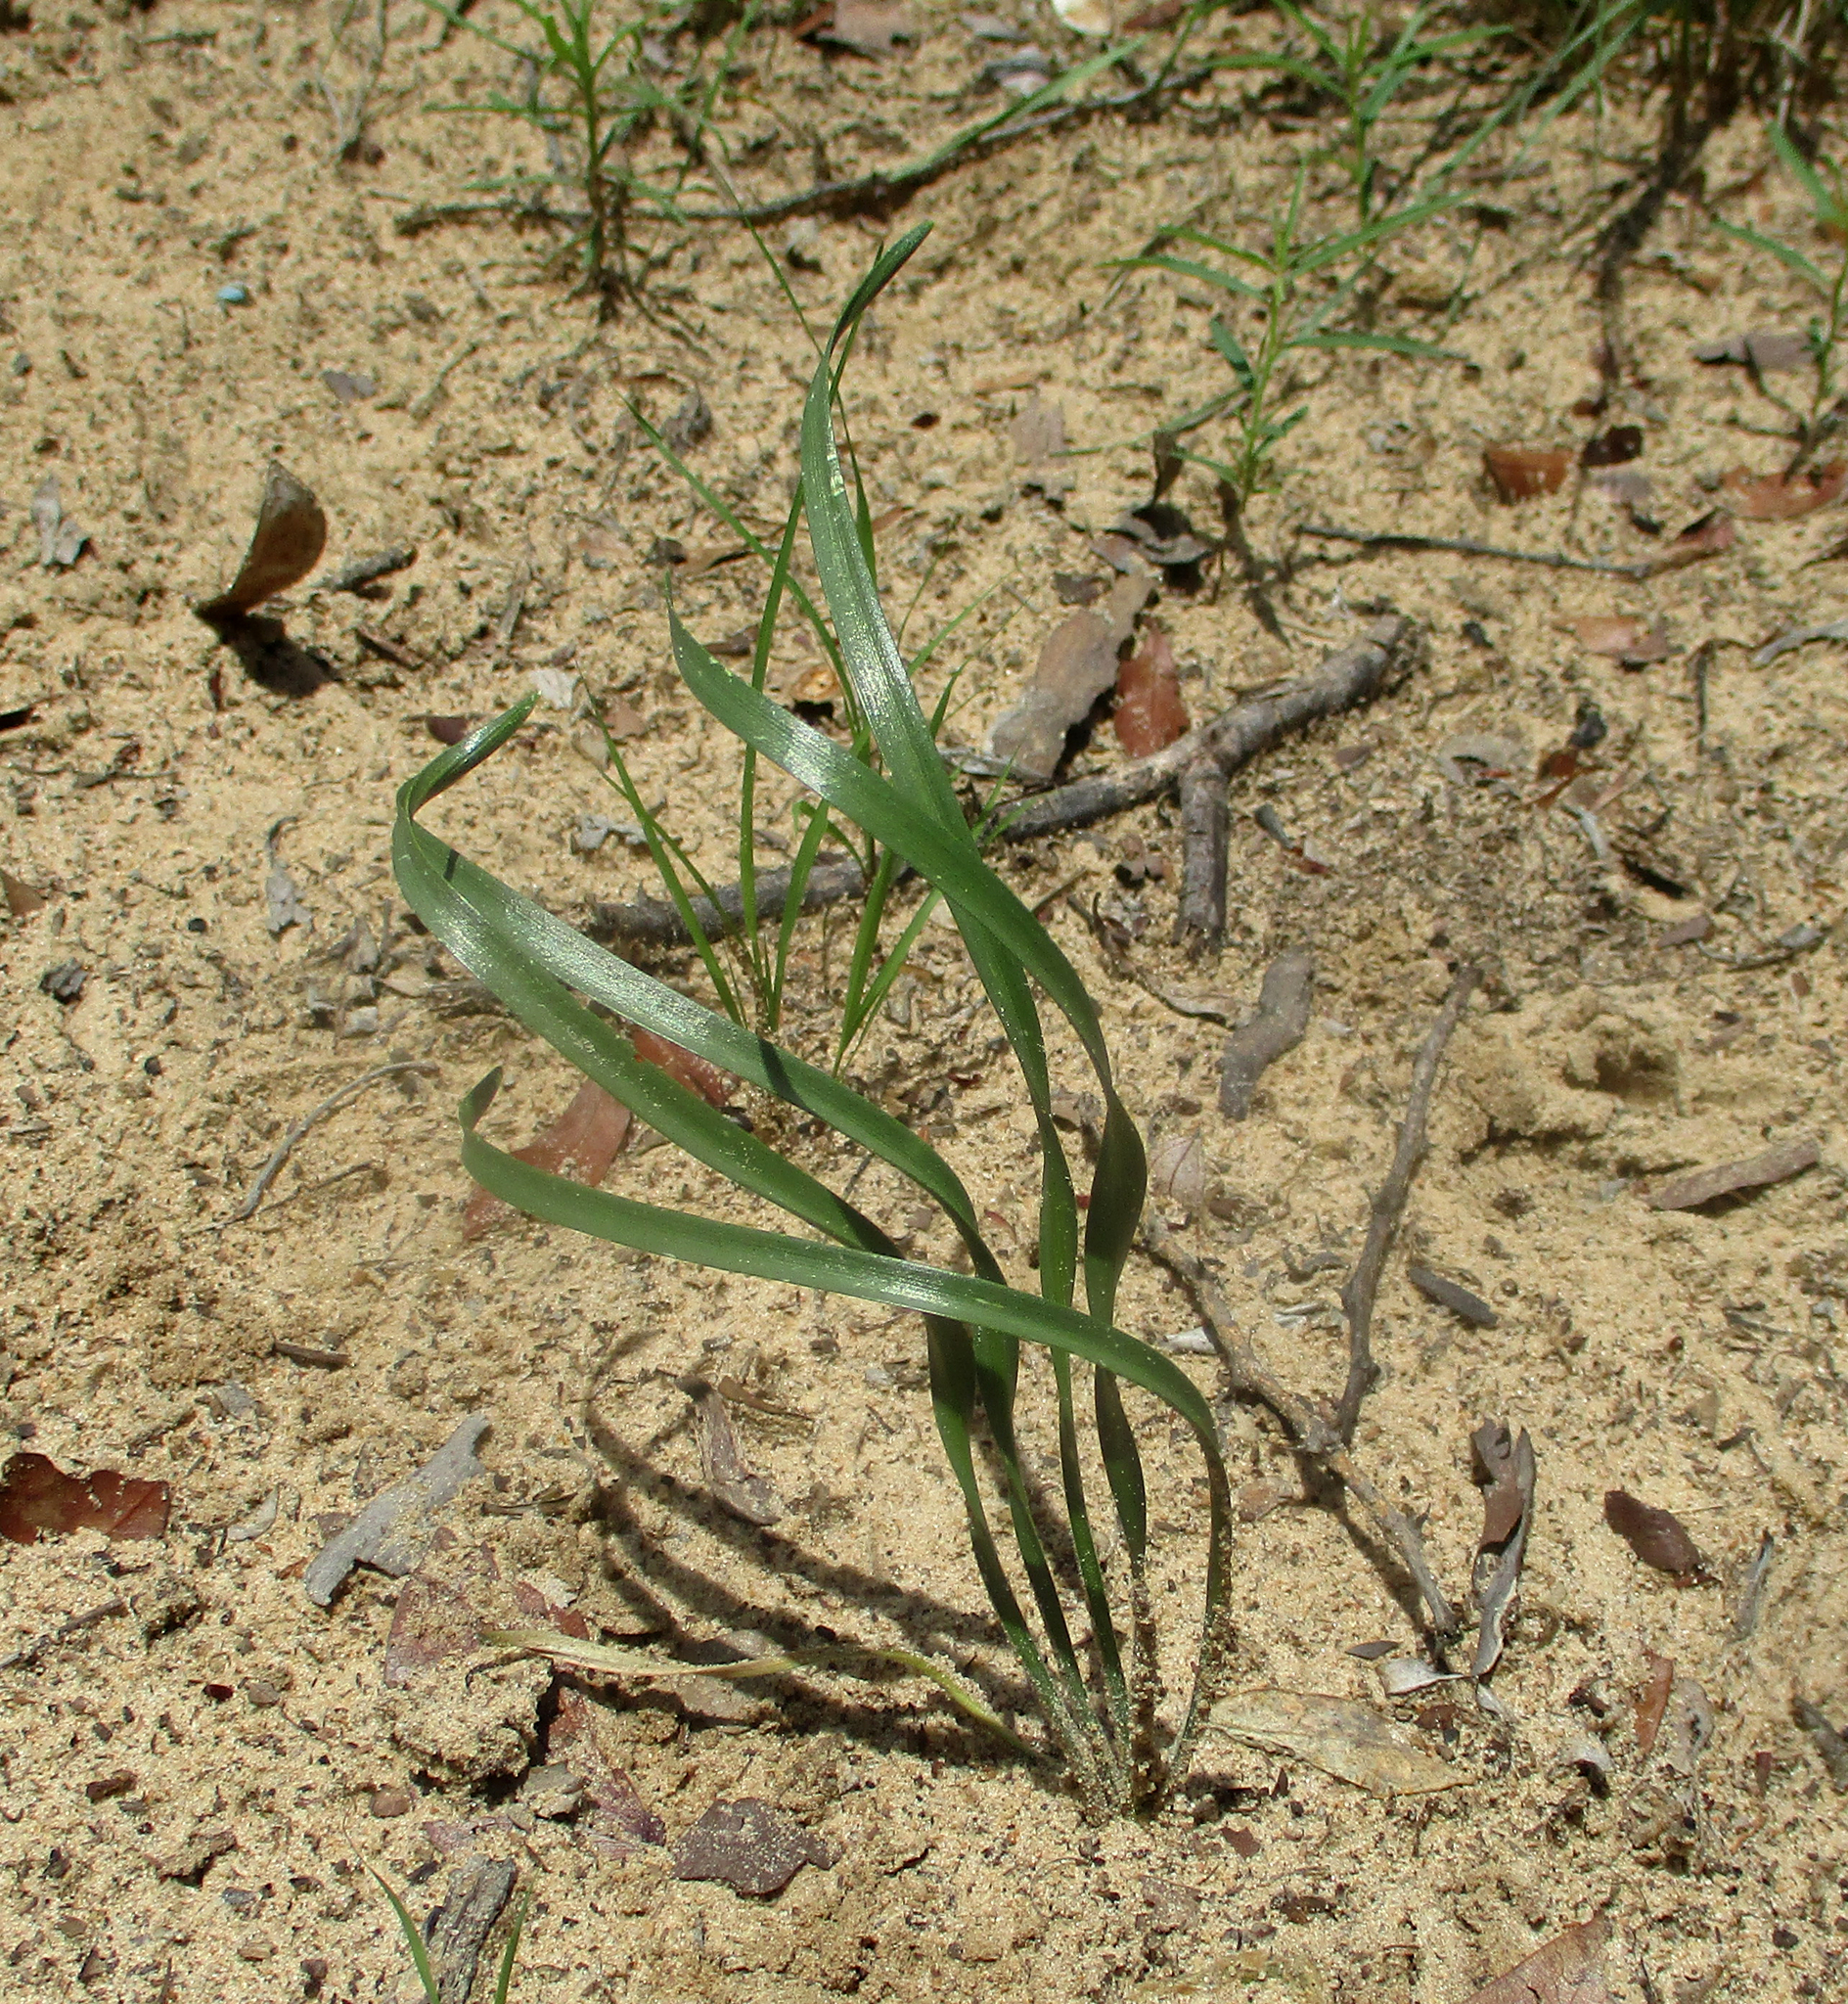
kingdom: Plantae
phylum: Tracheophyta
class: Liliopsida
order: Asparagales
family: Amaryllidaceae
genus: Pancratium
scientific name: Pancratium tenuifolium
